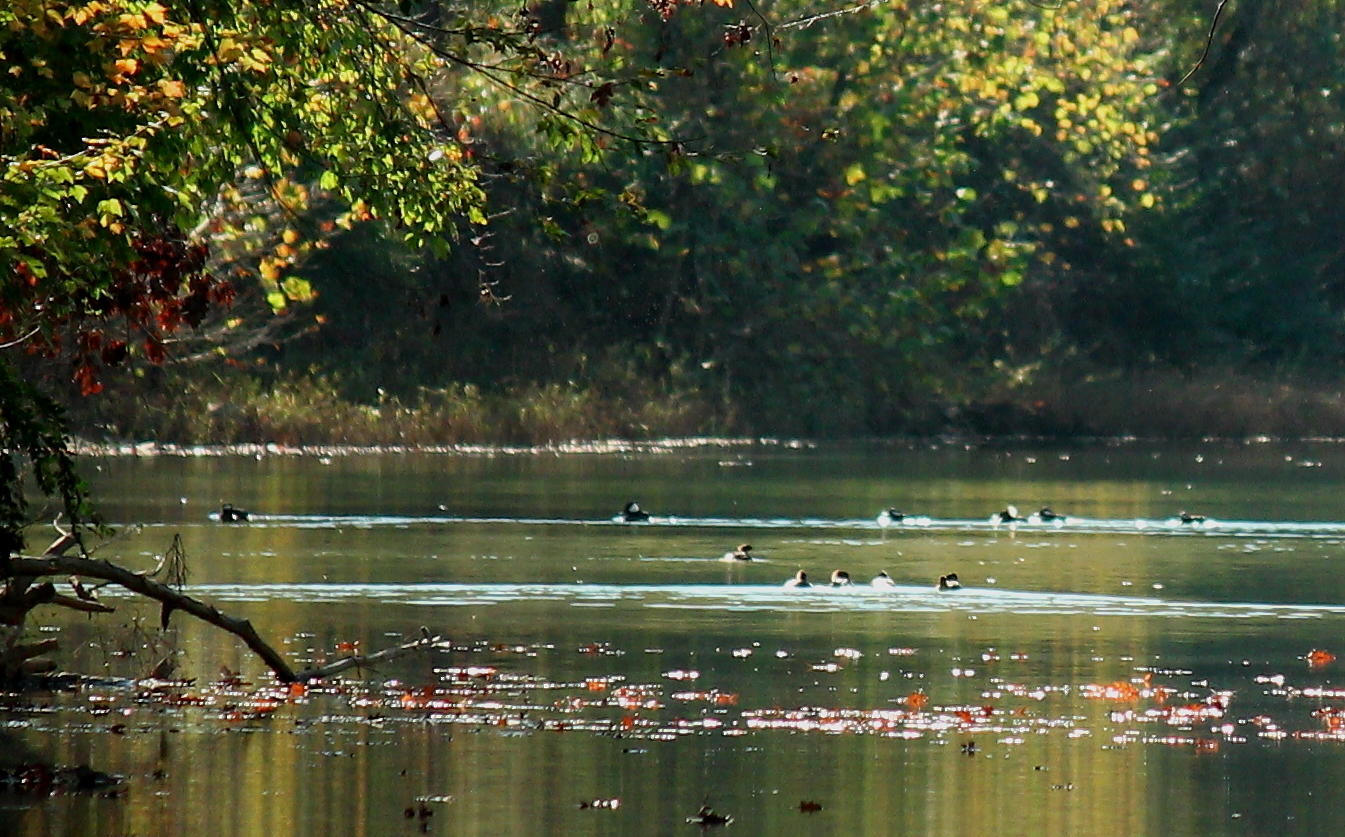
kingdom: Animalia
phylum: Chordata
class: Aves
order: Anseriformes
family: Anatidae
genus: Lophodytes
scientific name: Lophodytes cucullatus
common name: Hooded merganser
